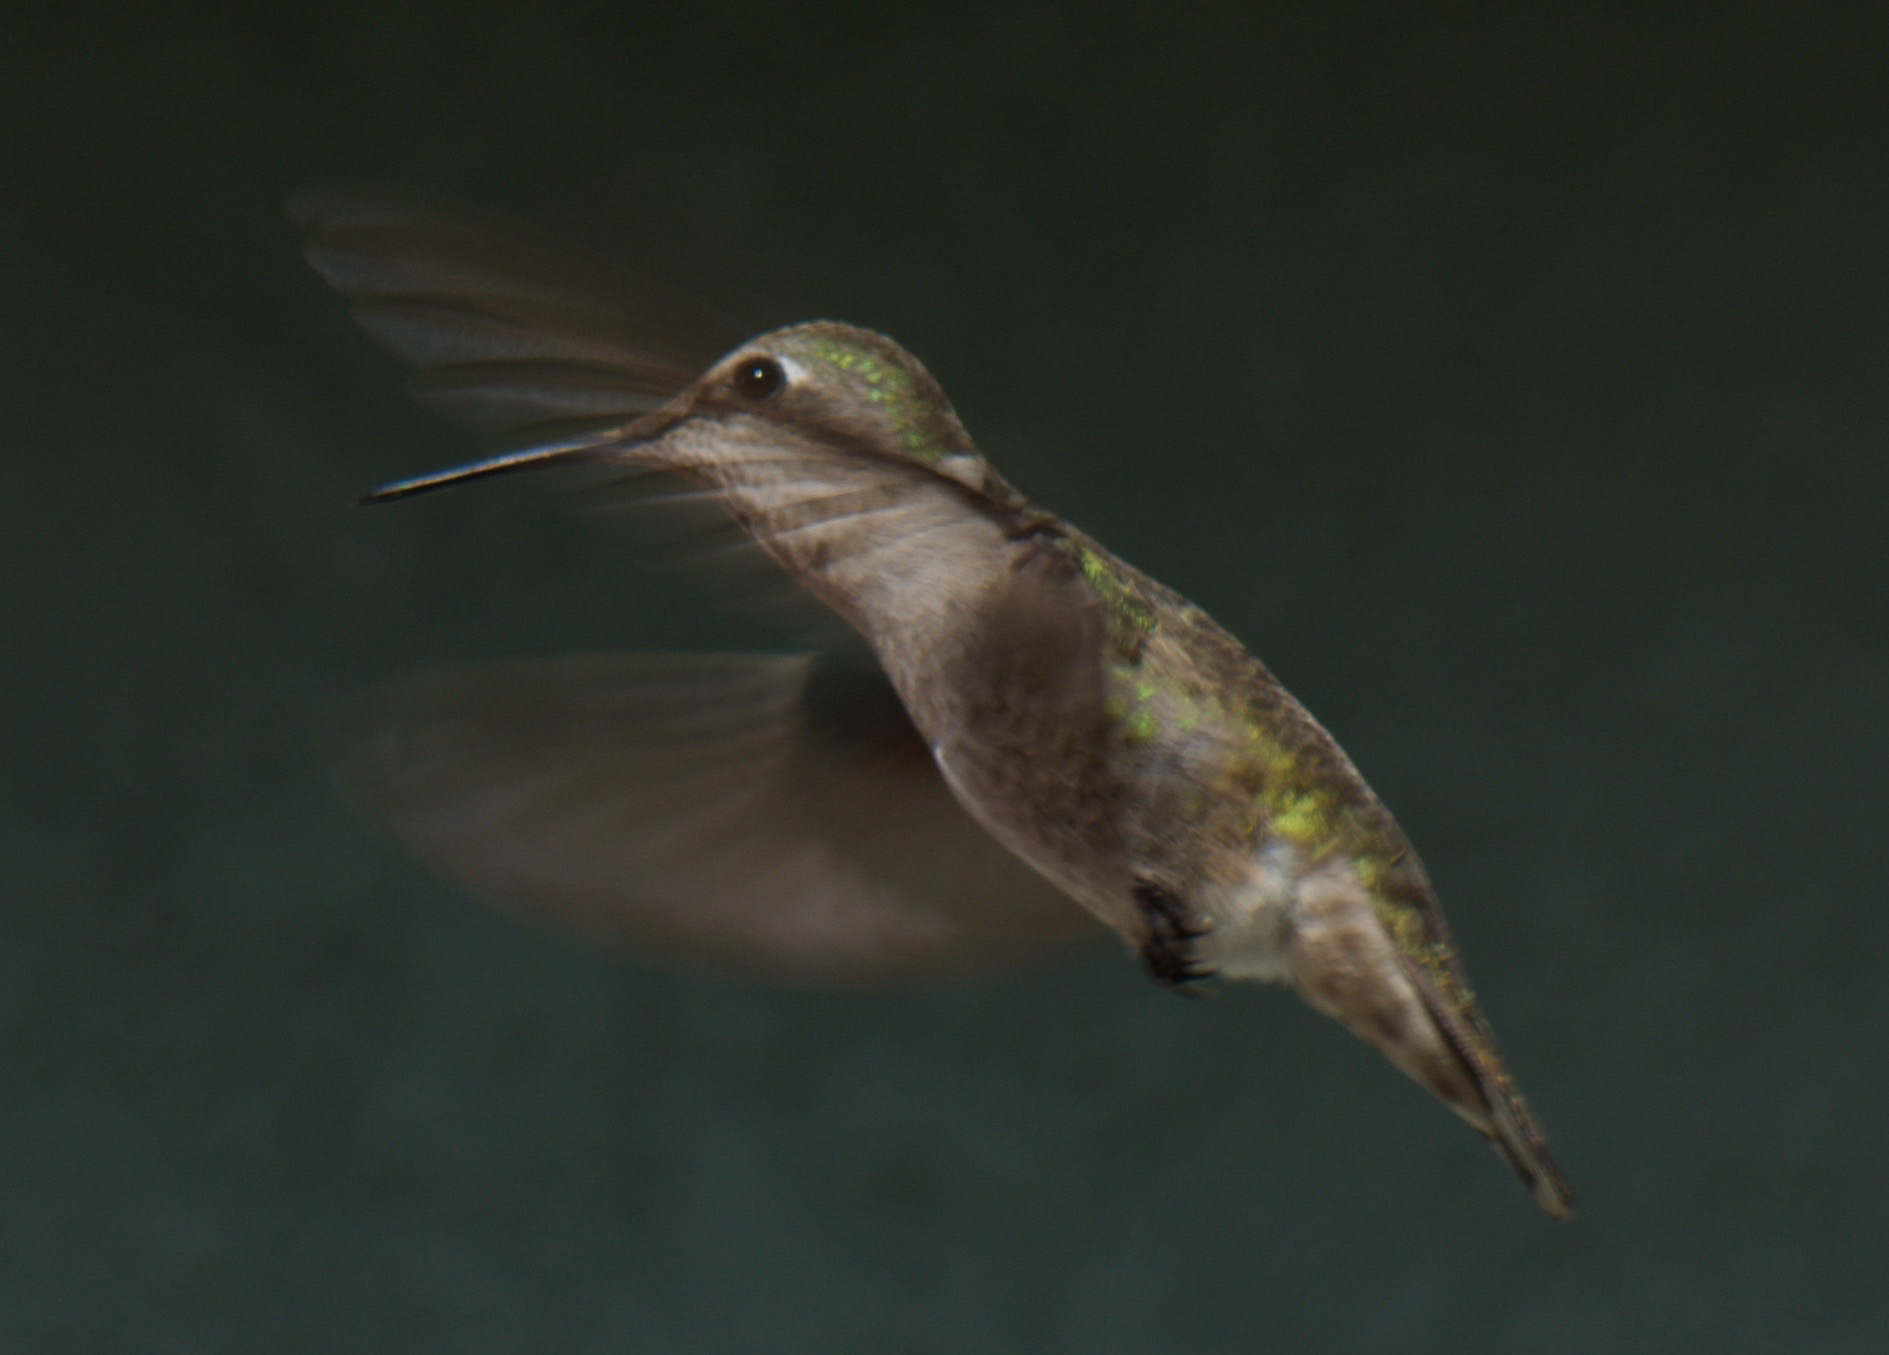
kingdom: Animalia
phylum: Chordata
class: Aves
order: Apodiformes
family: Trochilidae
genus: Calypte
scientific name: Calypte anna
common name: Anna's hummingbird
